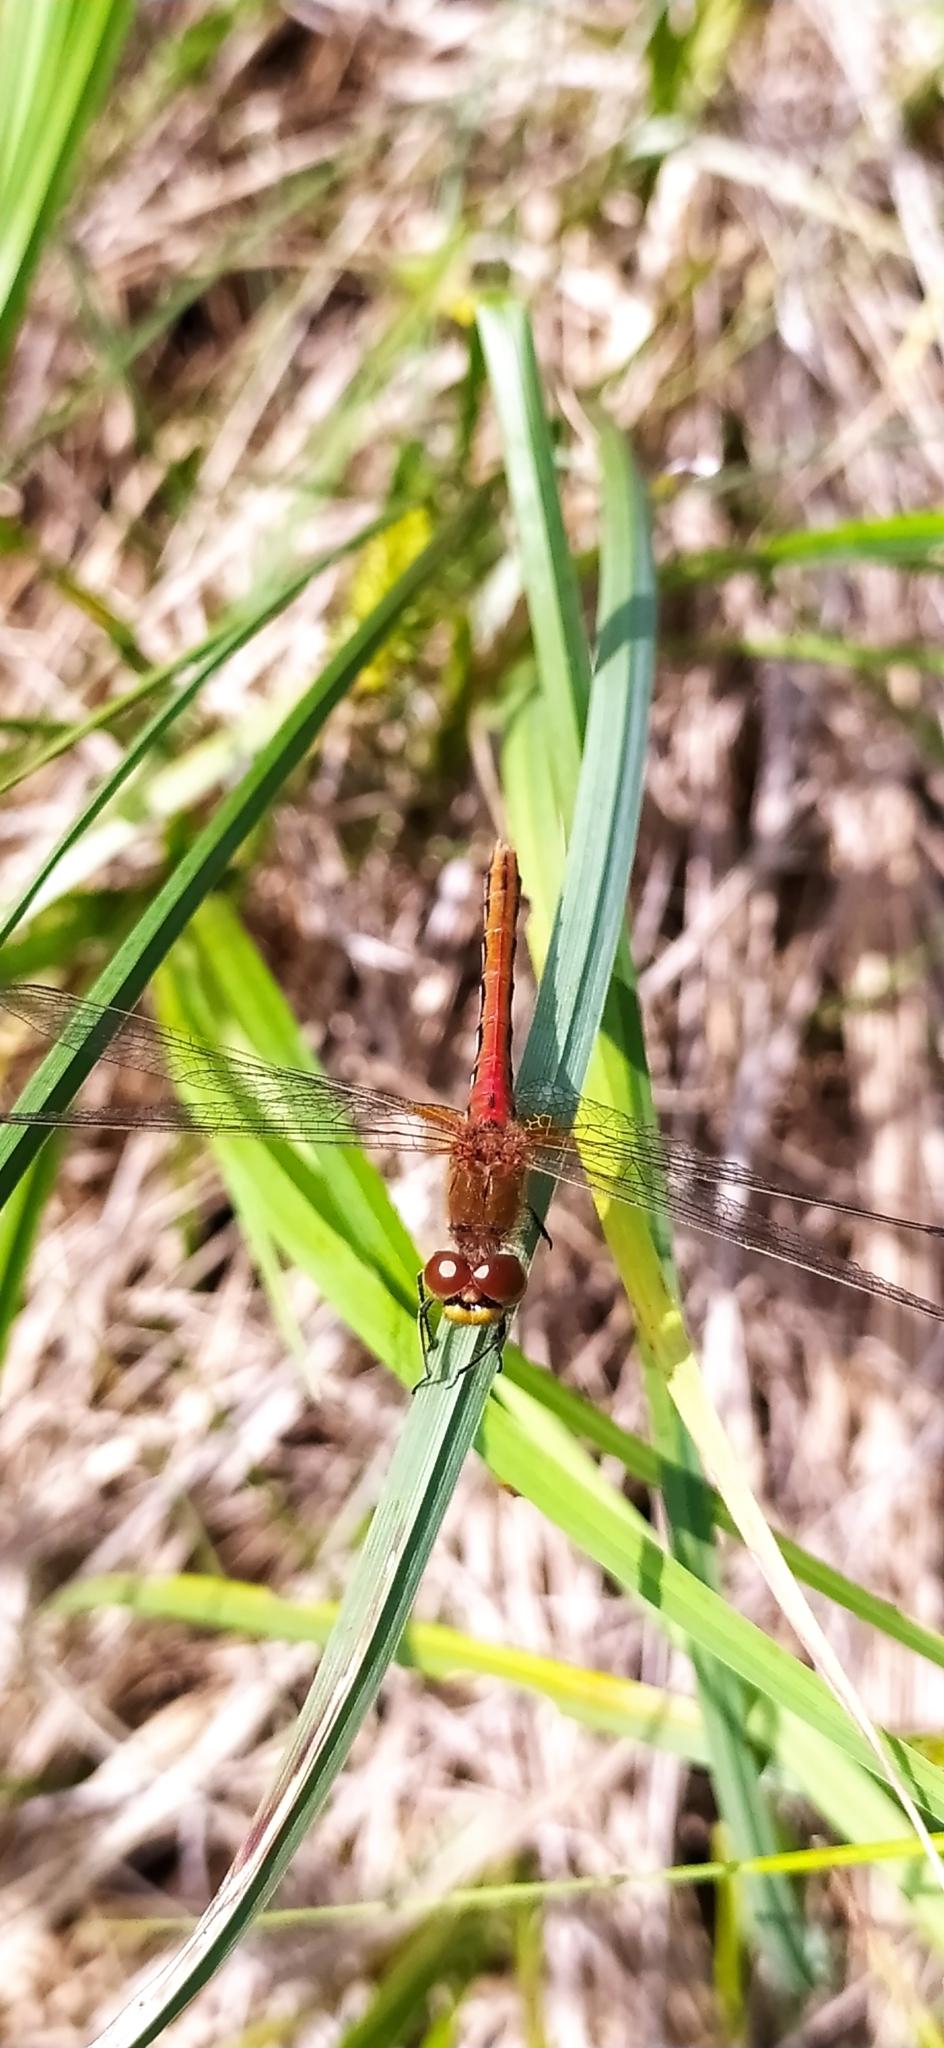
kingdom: Animalia
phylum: Arthropoda
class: Insecta
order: Odonata
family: Libellulidae
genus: Sympetrum
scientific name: Sympetrum flaveolum
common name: Yellow-winged darter
